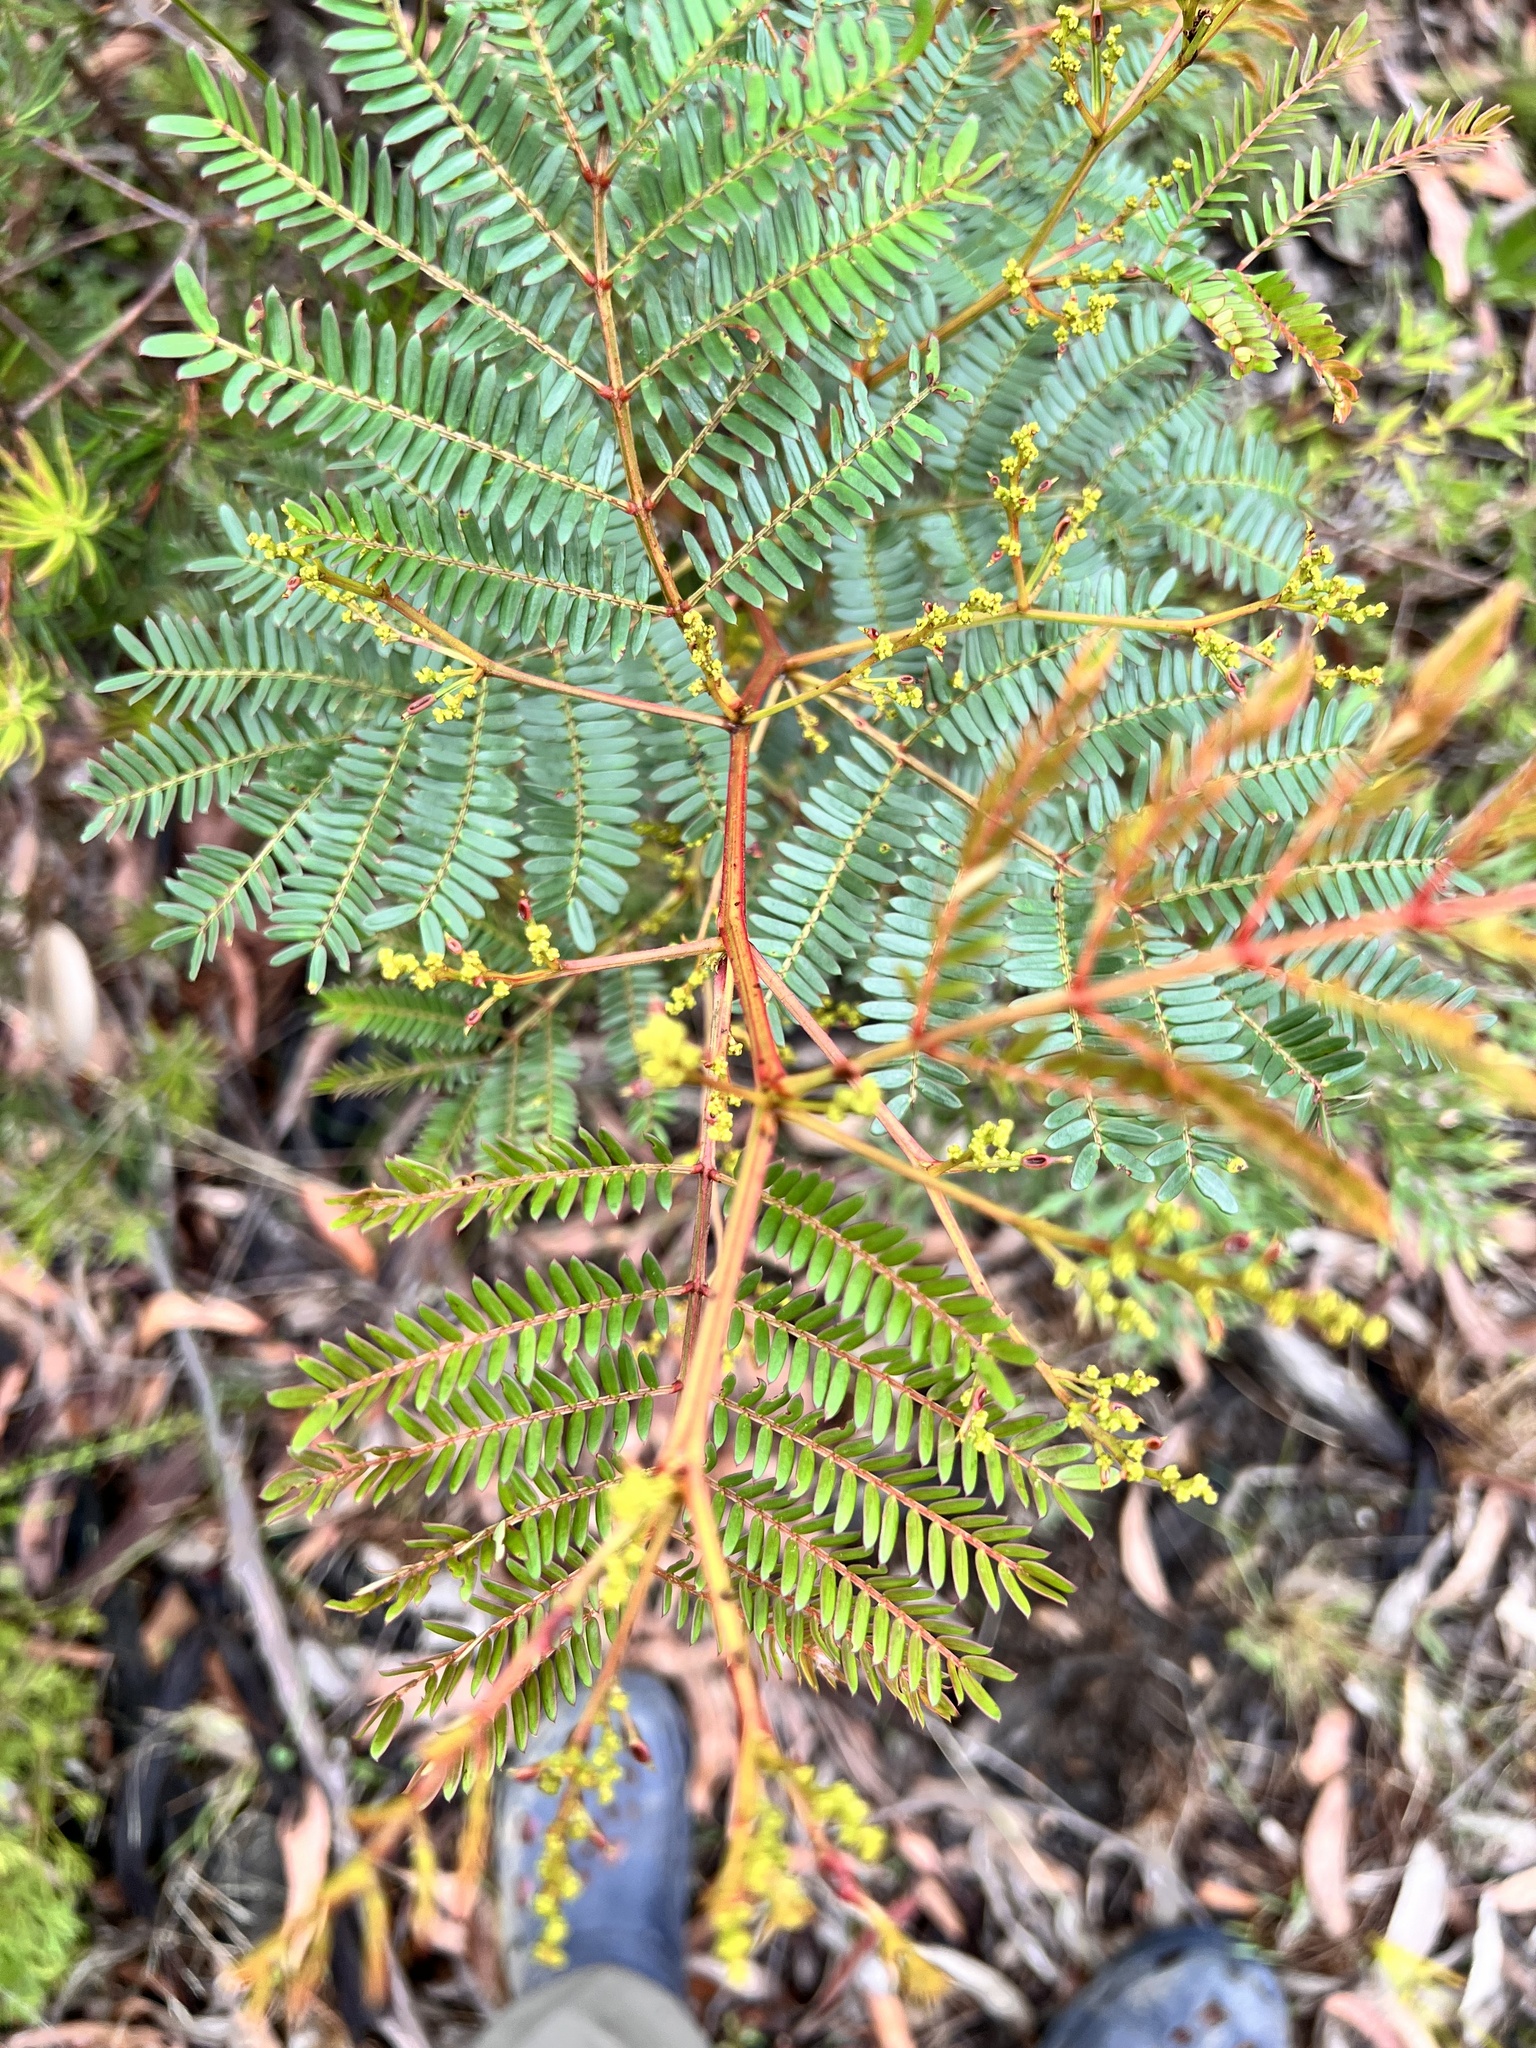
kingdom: Plantae
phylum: Tracheophyta
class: Magnoliopsida
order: Fabales
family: Fabaceae
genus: Acacia
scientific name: Acacia terminalis
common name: Cedar wattle
